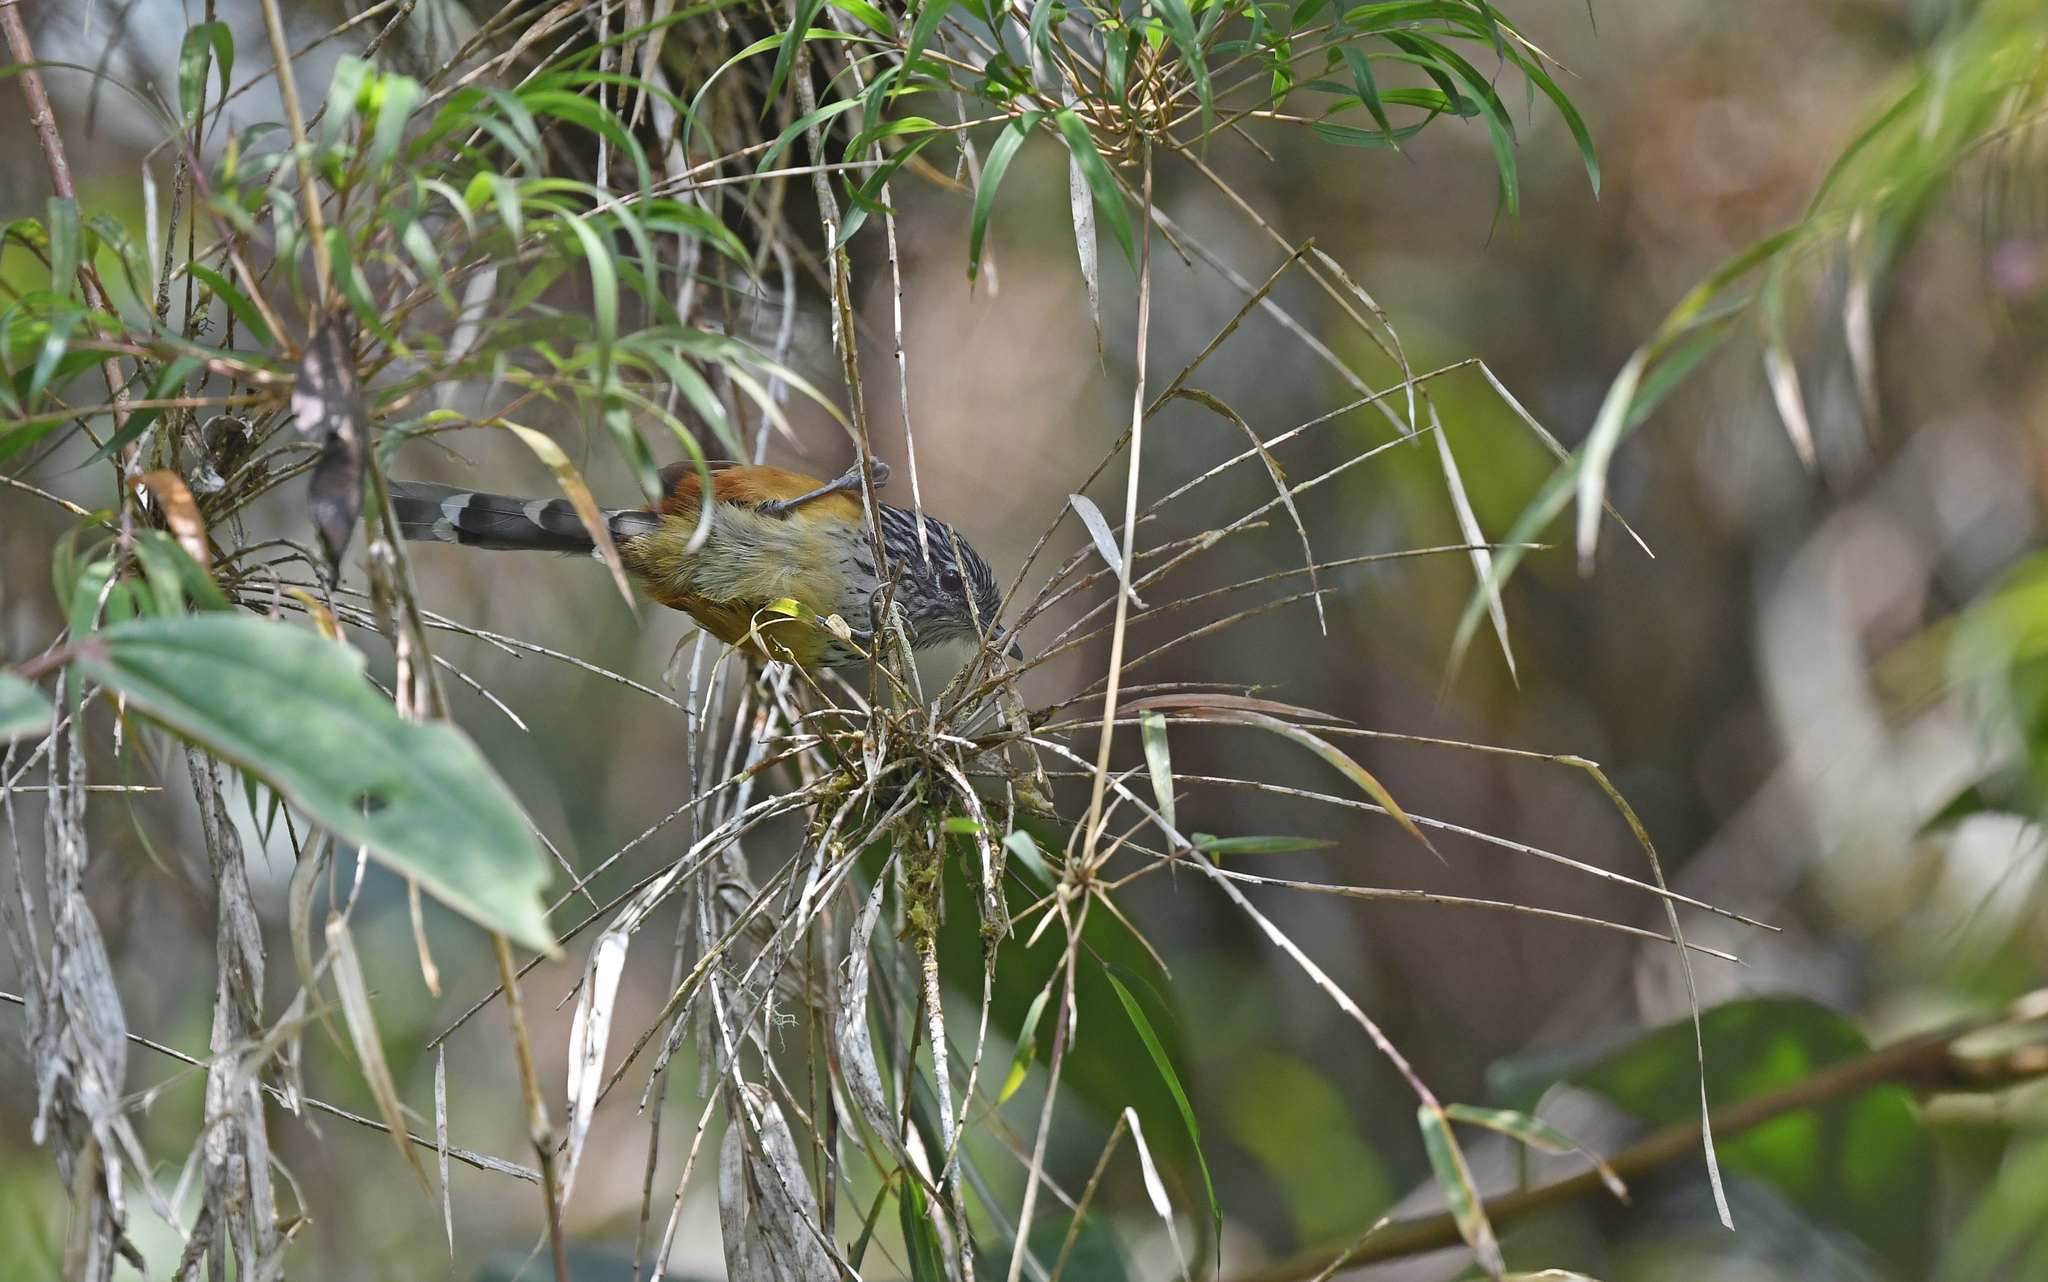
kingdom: Animalia
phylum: Chordata
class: Aves
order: Passeriformes
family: Thamnophilidae
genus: Drymophila
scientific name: Drymophila striaticeps
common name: Streak-headed antbird
